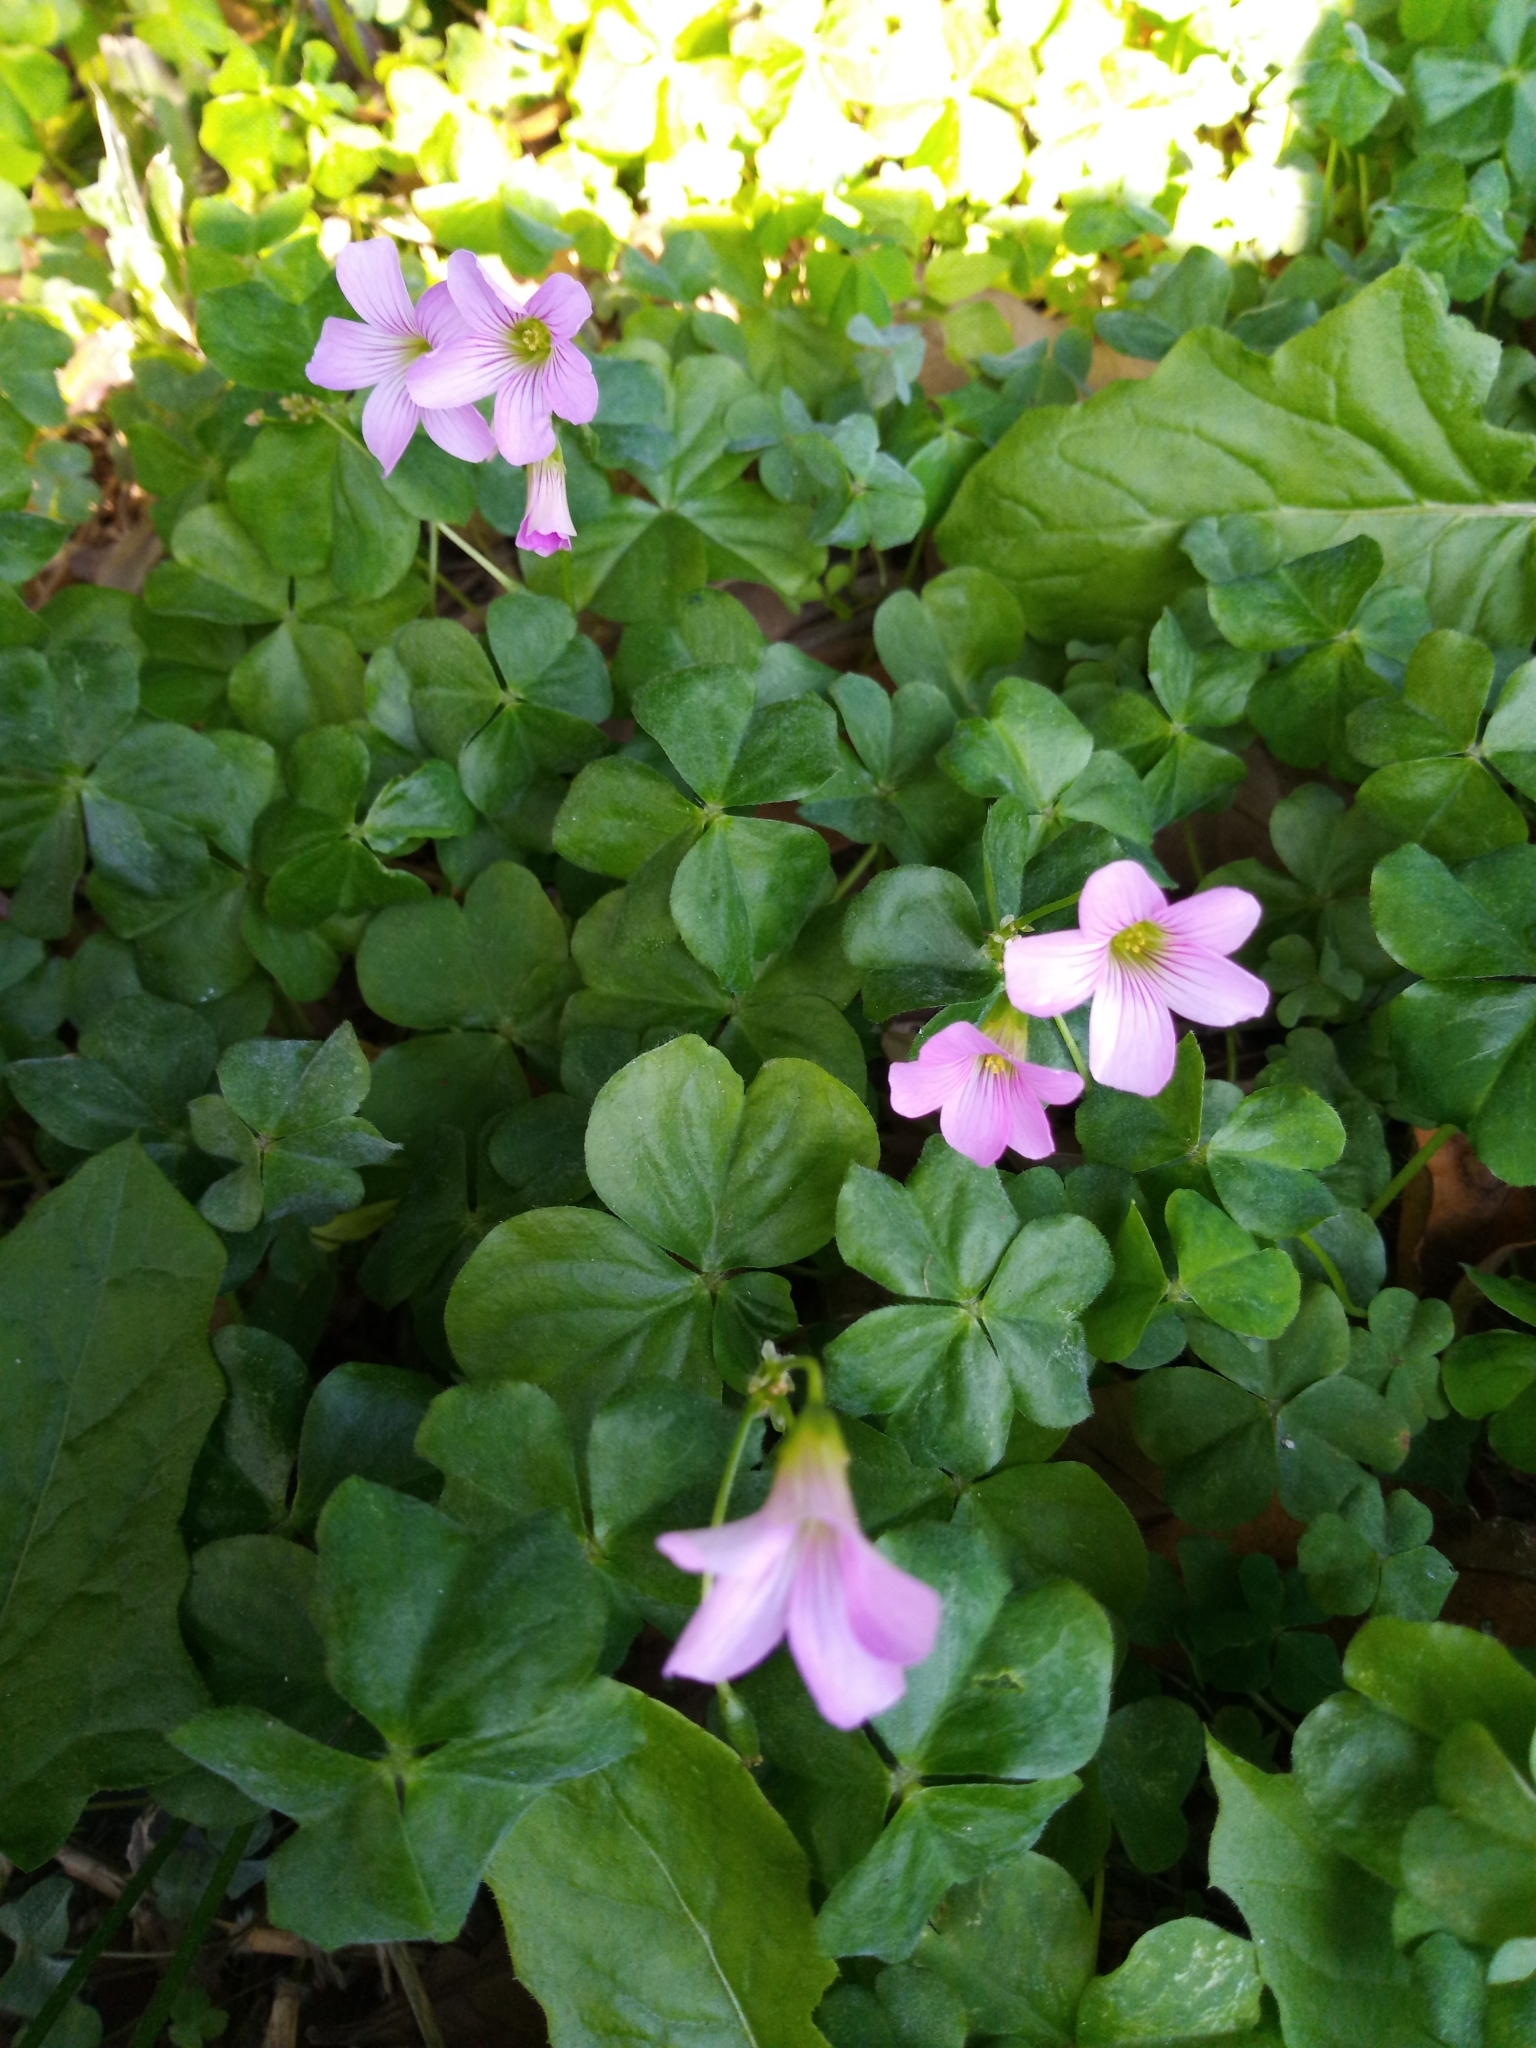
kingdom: Plantae
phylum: Tracheophyta
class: Magnoliopsida
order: Oxalidales
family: Oxalidaceae
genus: Oxalis
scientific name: Oxalis debilis
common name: Large-flowered pink-sorrel
